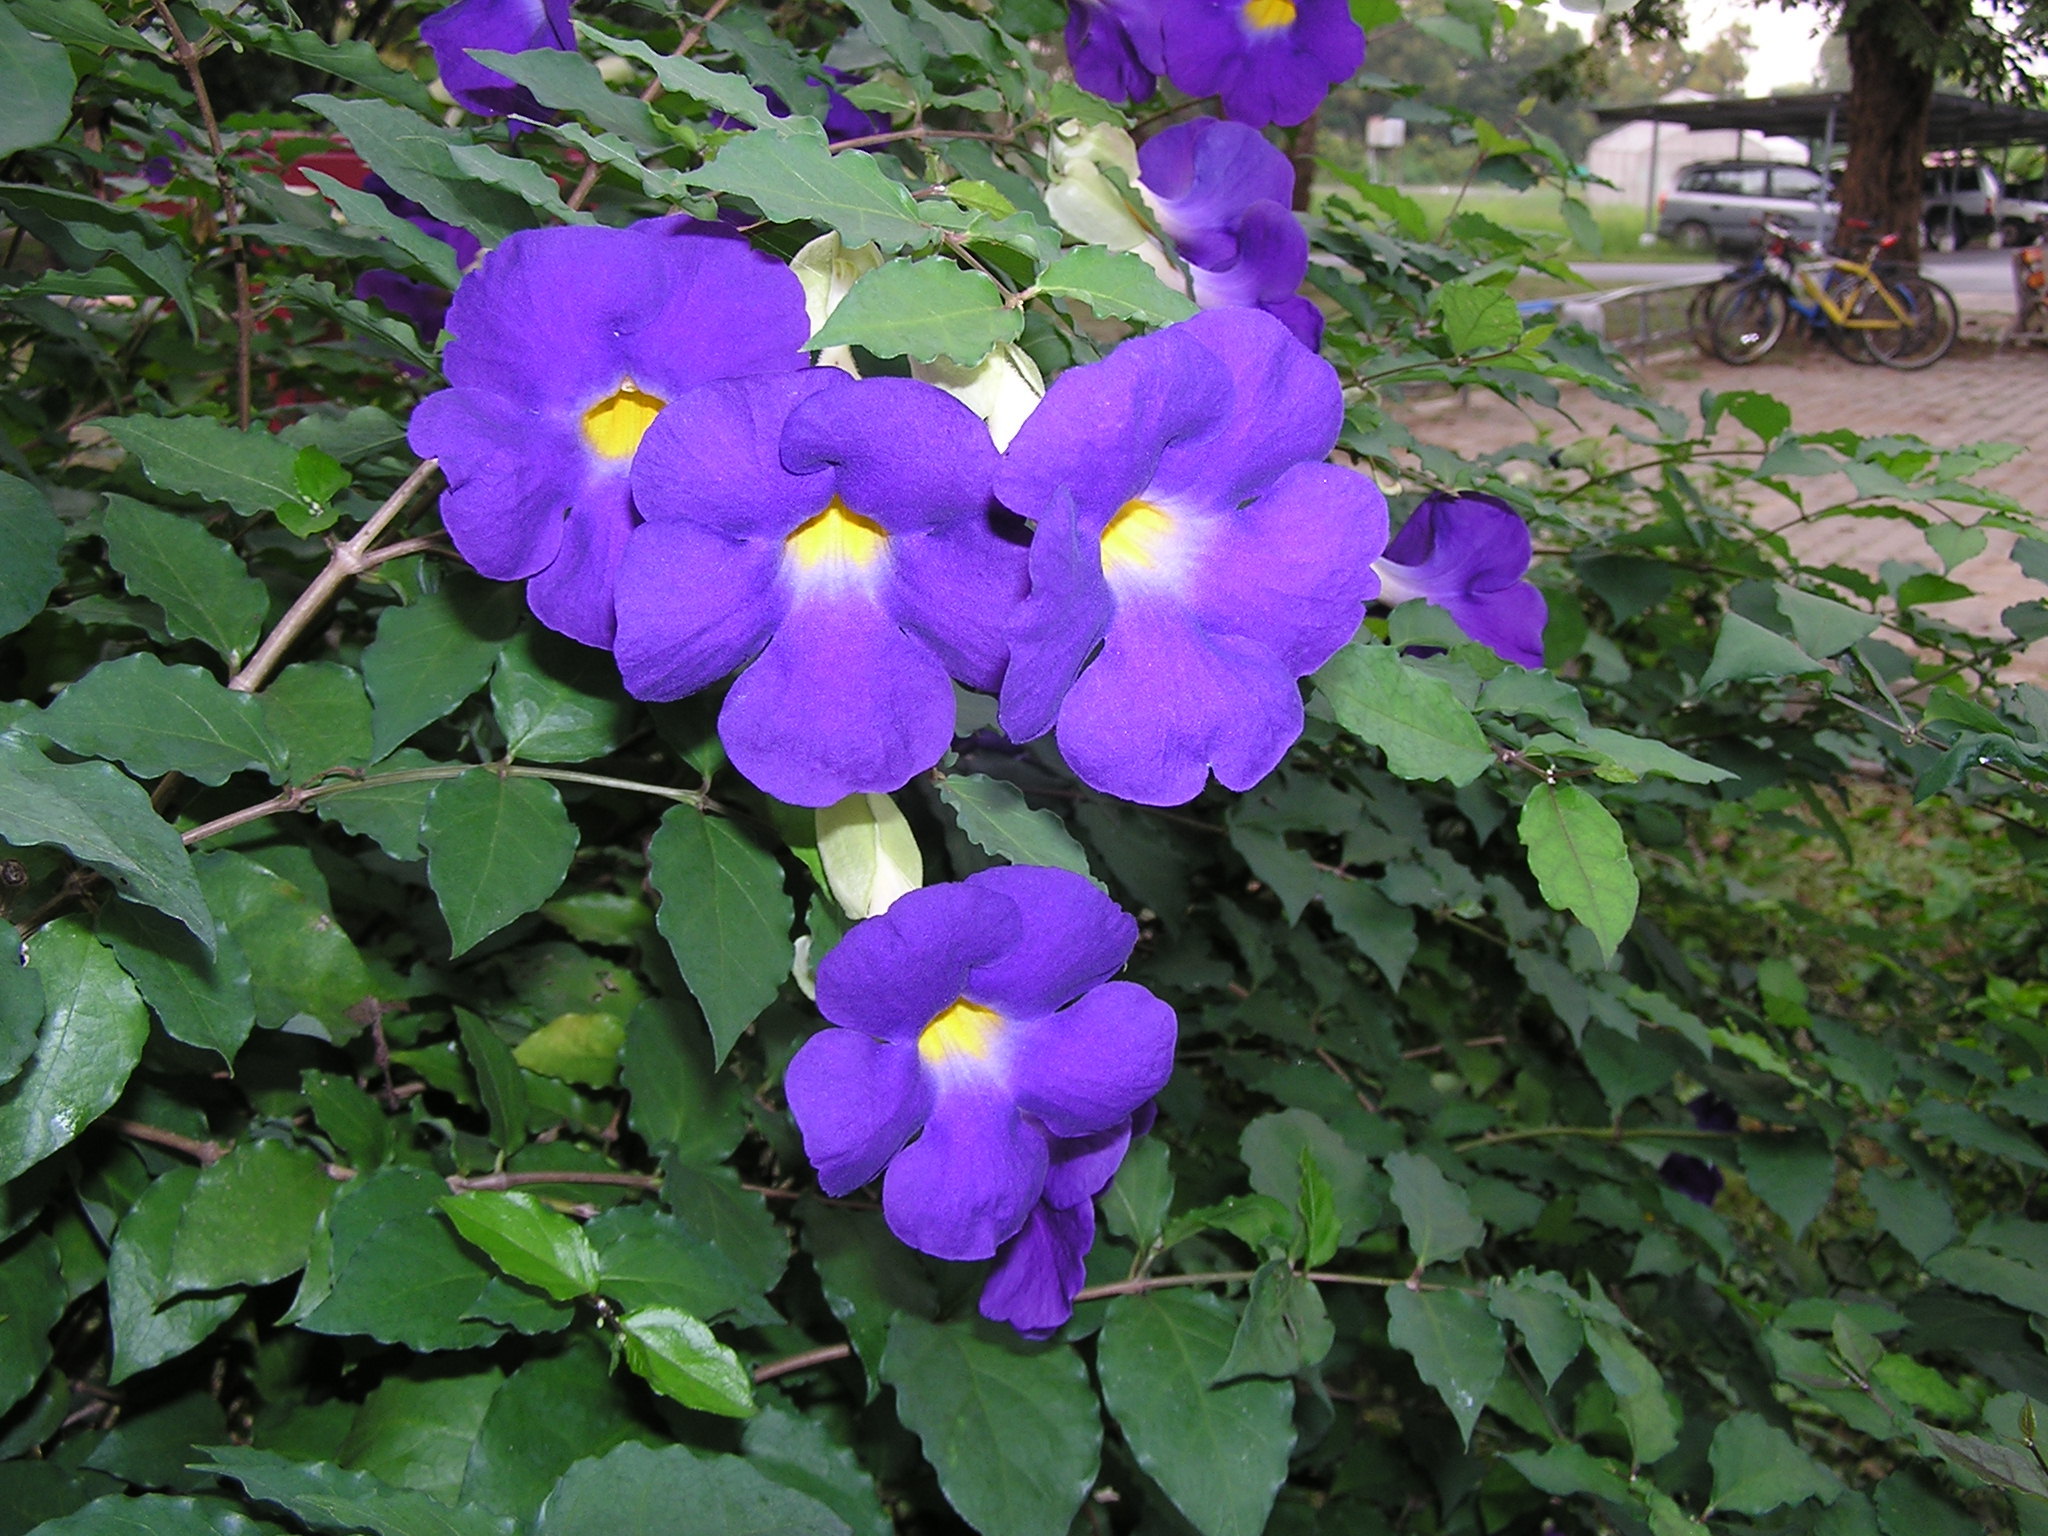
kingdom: Plantae
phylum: Tracheophyta
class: Magnoliopsida
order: Lamiales
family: Acanthaceae
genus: Thunbergia
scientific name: Thunbergia erecta
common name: Bush clockvine
